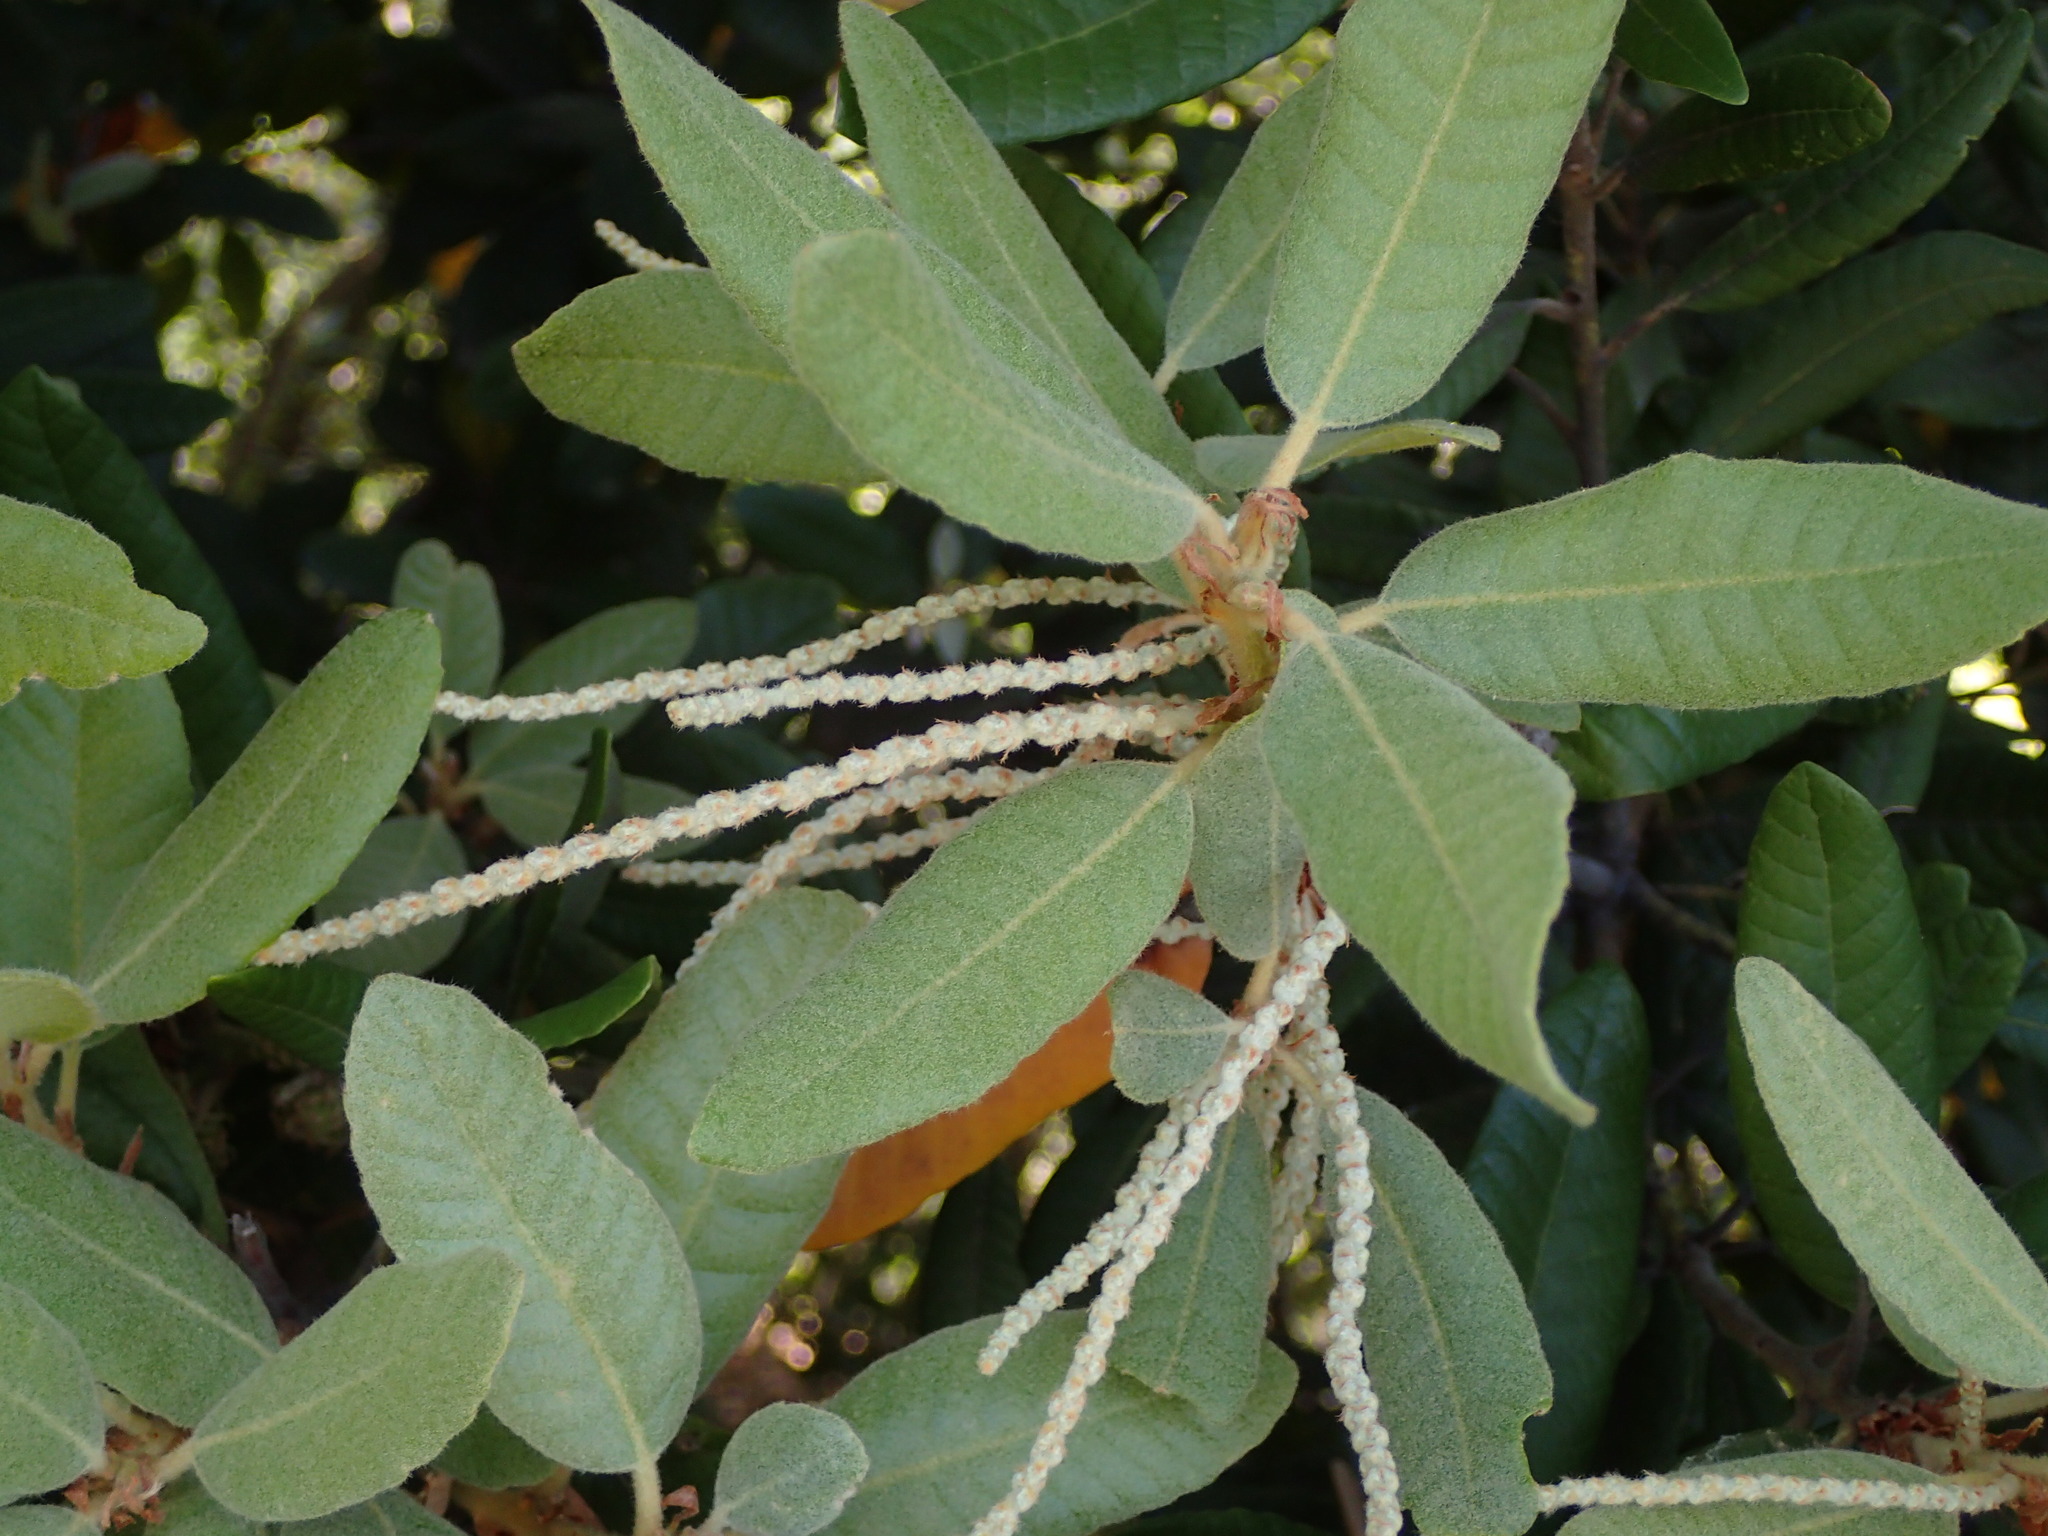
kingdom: Plantae
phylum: Tracheophyta
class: Magnoliopsida
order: Fagales
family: Fagaceae
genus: Notholithocarpus
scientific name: Notholithocarpus densiflorus
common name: Tan bark oak
